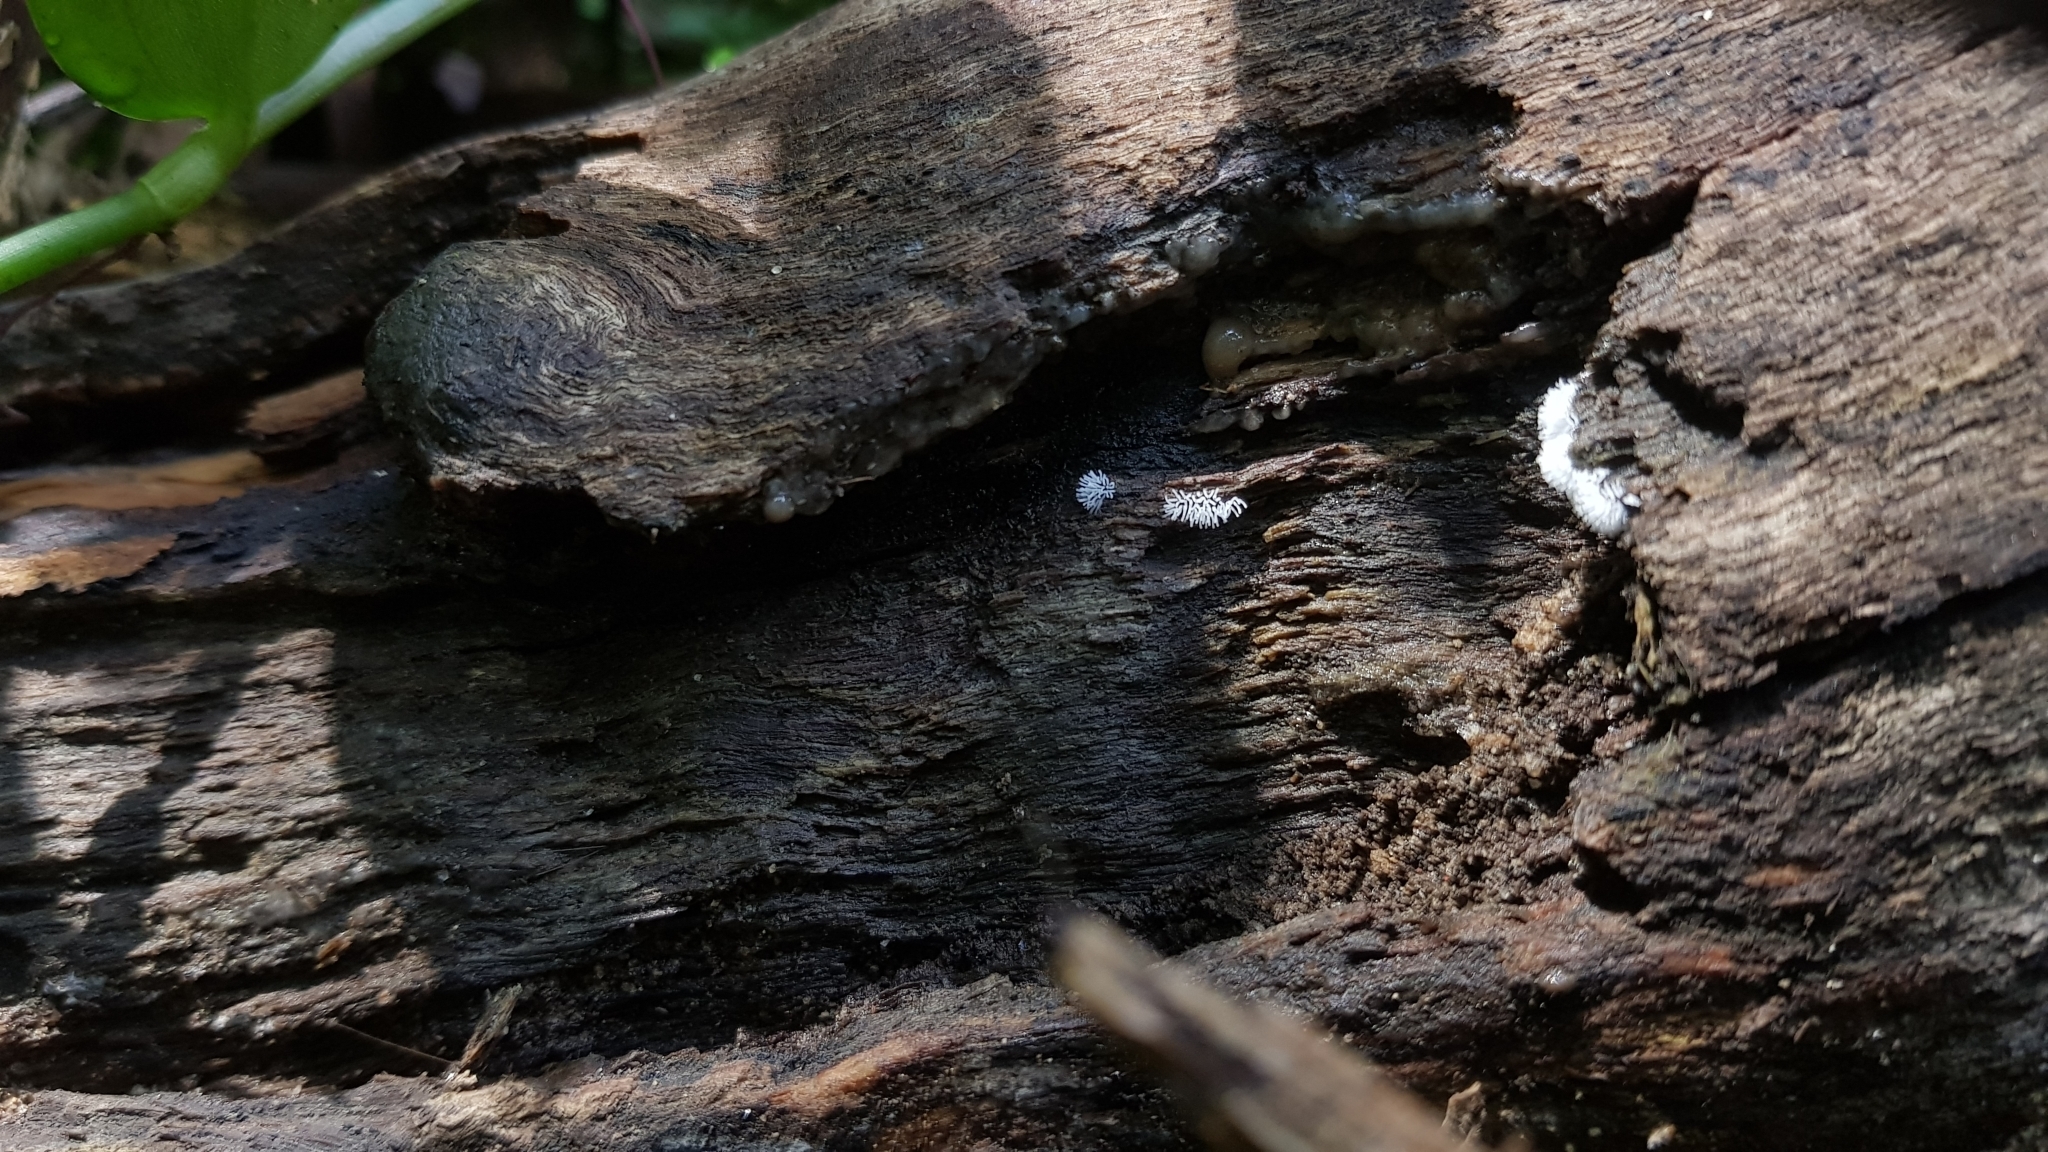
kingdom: Protozoa
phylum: Mycetozoa
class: Protosteliomycetes
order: Ceratiomyxales
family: Ceratiomyxaceae
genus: Ceratiomyxa
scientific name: Ceratiomyxa fruticulosa
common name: Honeycomb coral slime mold
